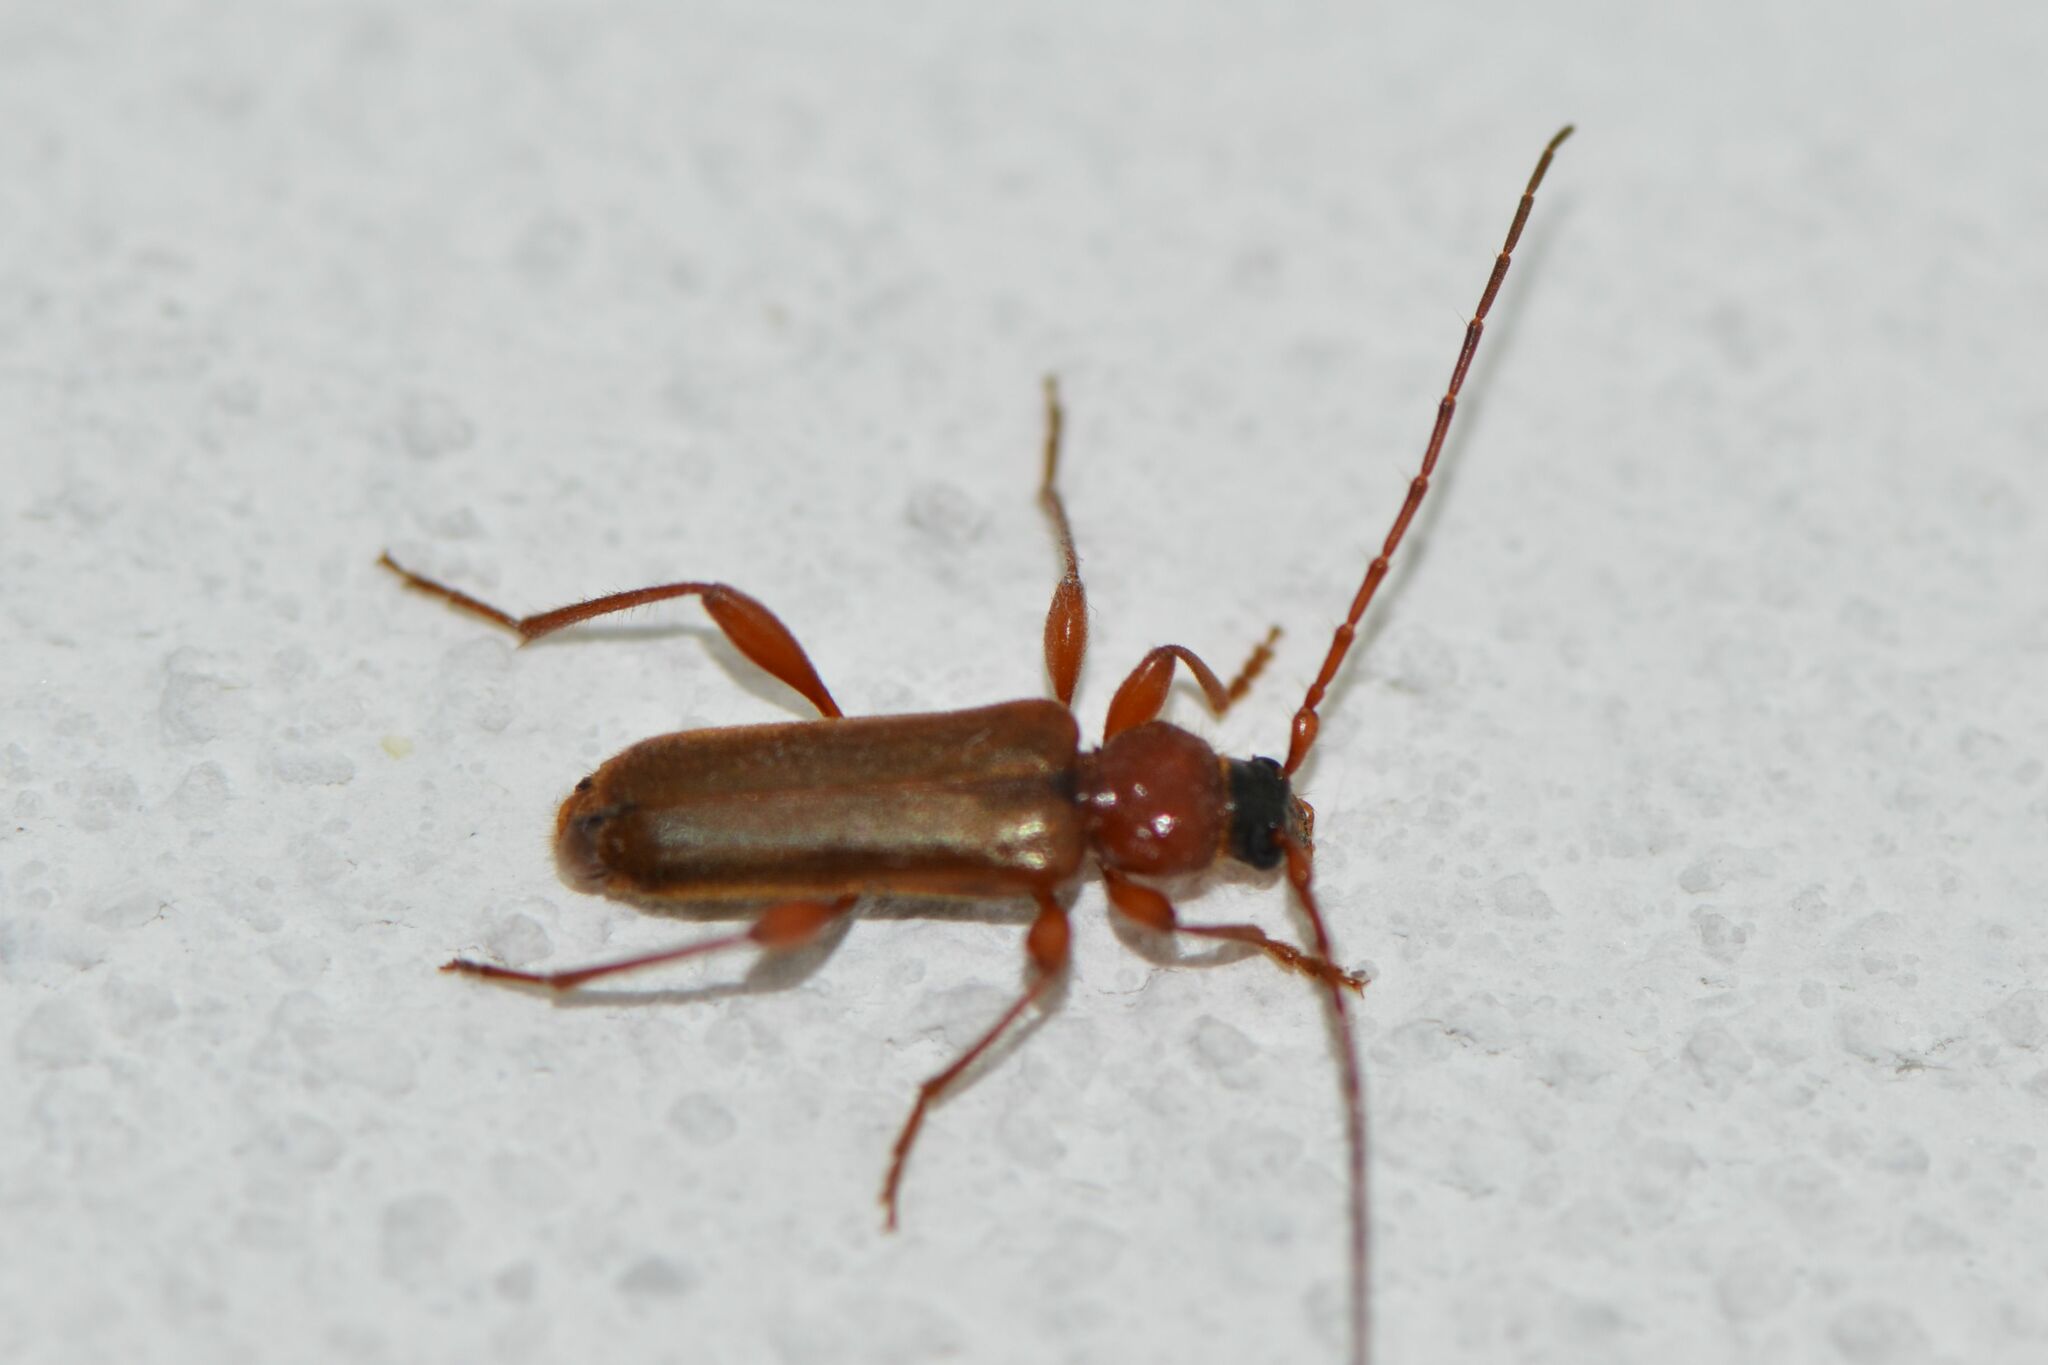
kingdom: Animalia
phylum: Arthropoda
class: Insecta
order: Coleoptera
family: Cerambycidae
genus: Phymatodes
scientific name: Phymatodes testaceus
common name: Long-horned beetle
